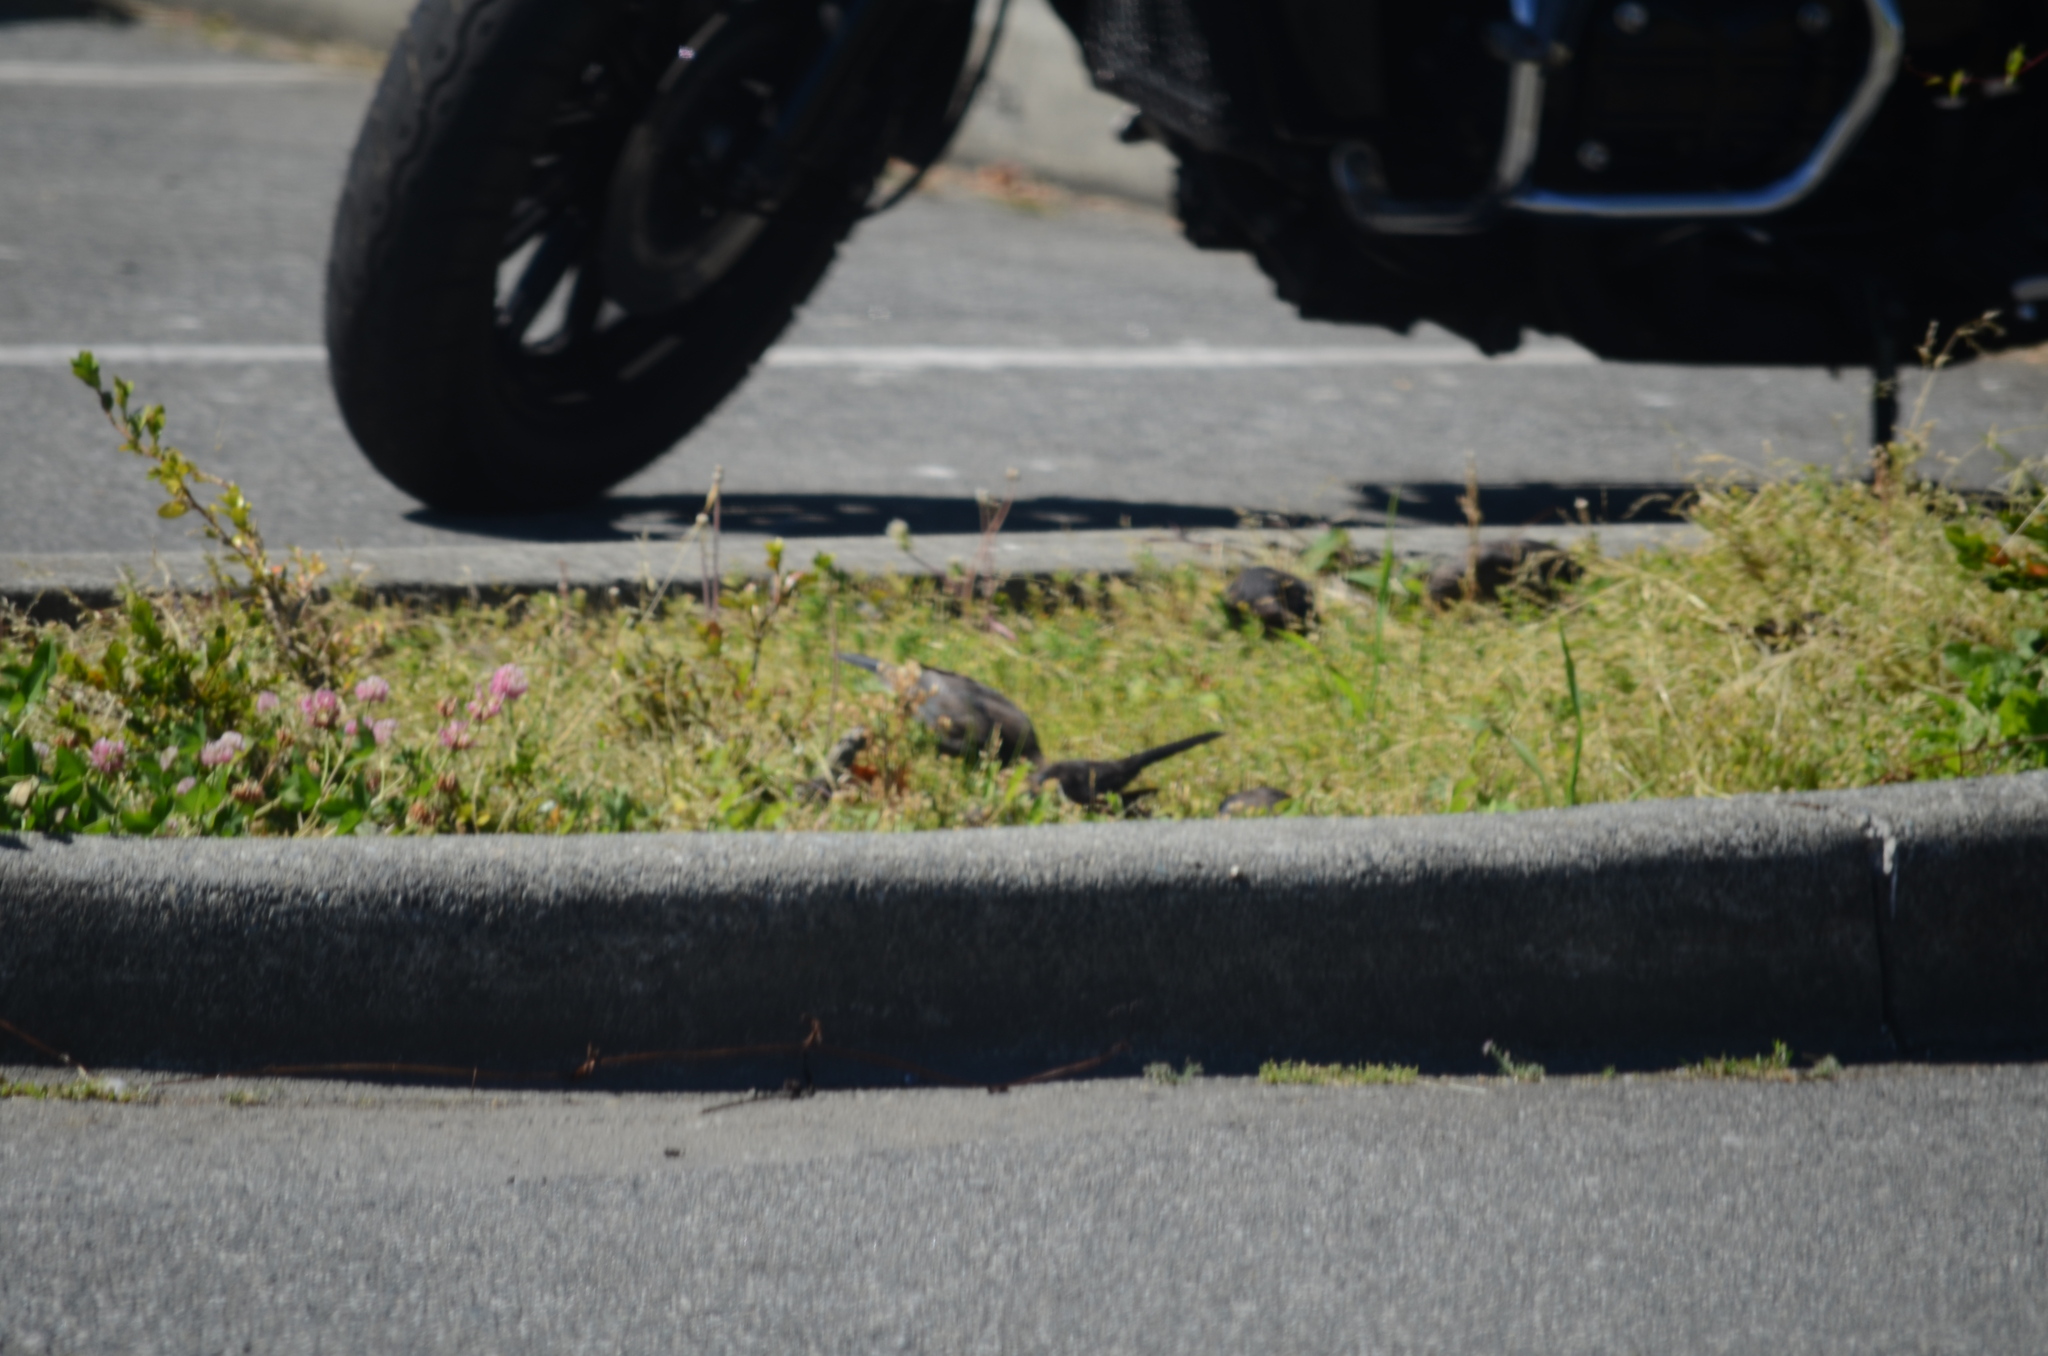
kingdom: Animalia
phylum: Chordata
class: Aves
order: Passeriformes
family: Icteridae
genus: Euphagus
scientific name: Euphagus cyanocephalus
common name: Brewer's blackbird
